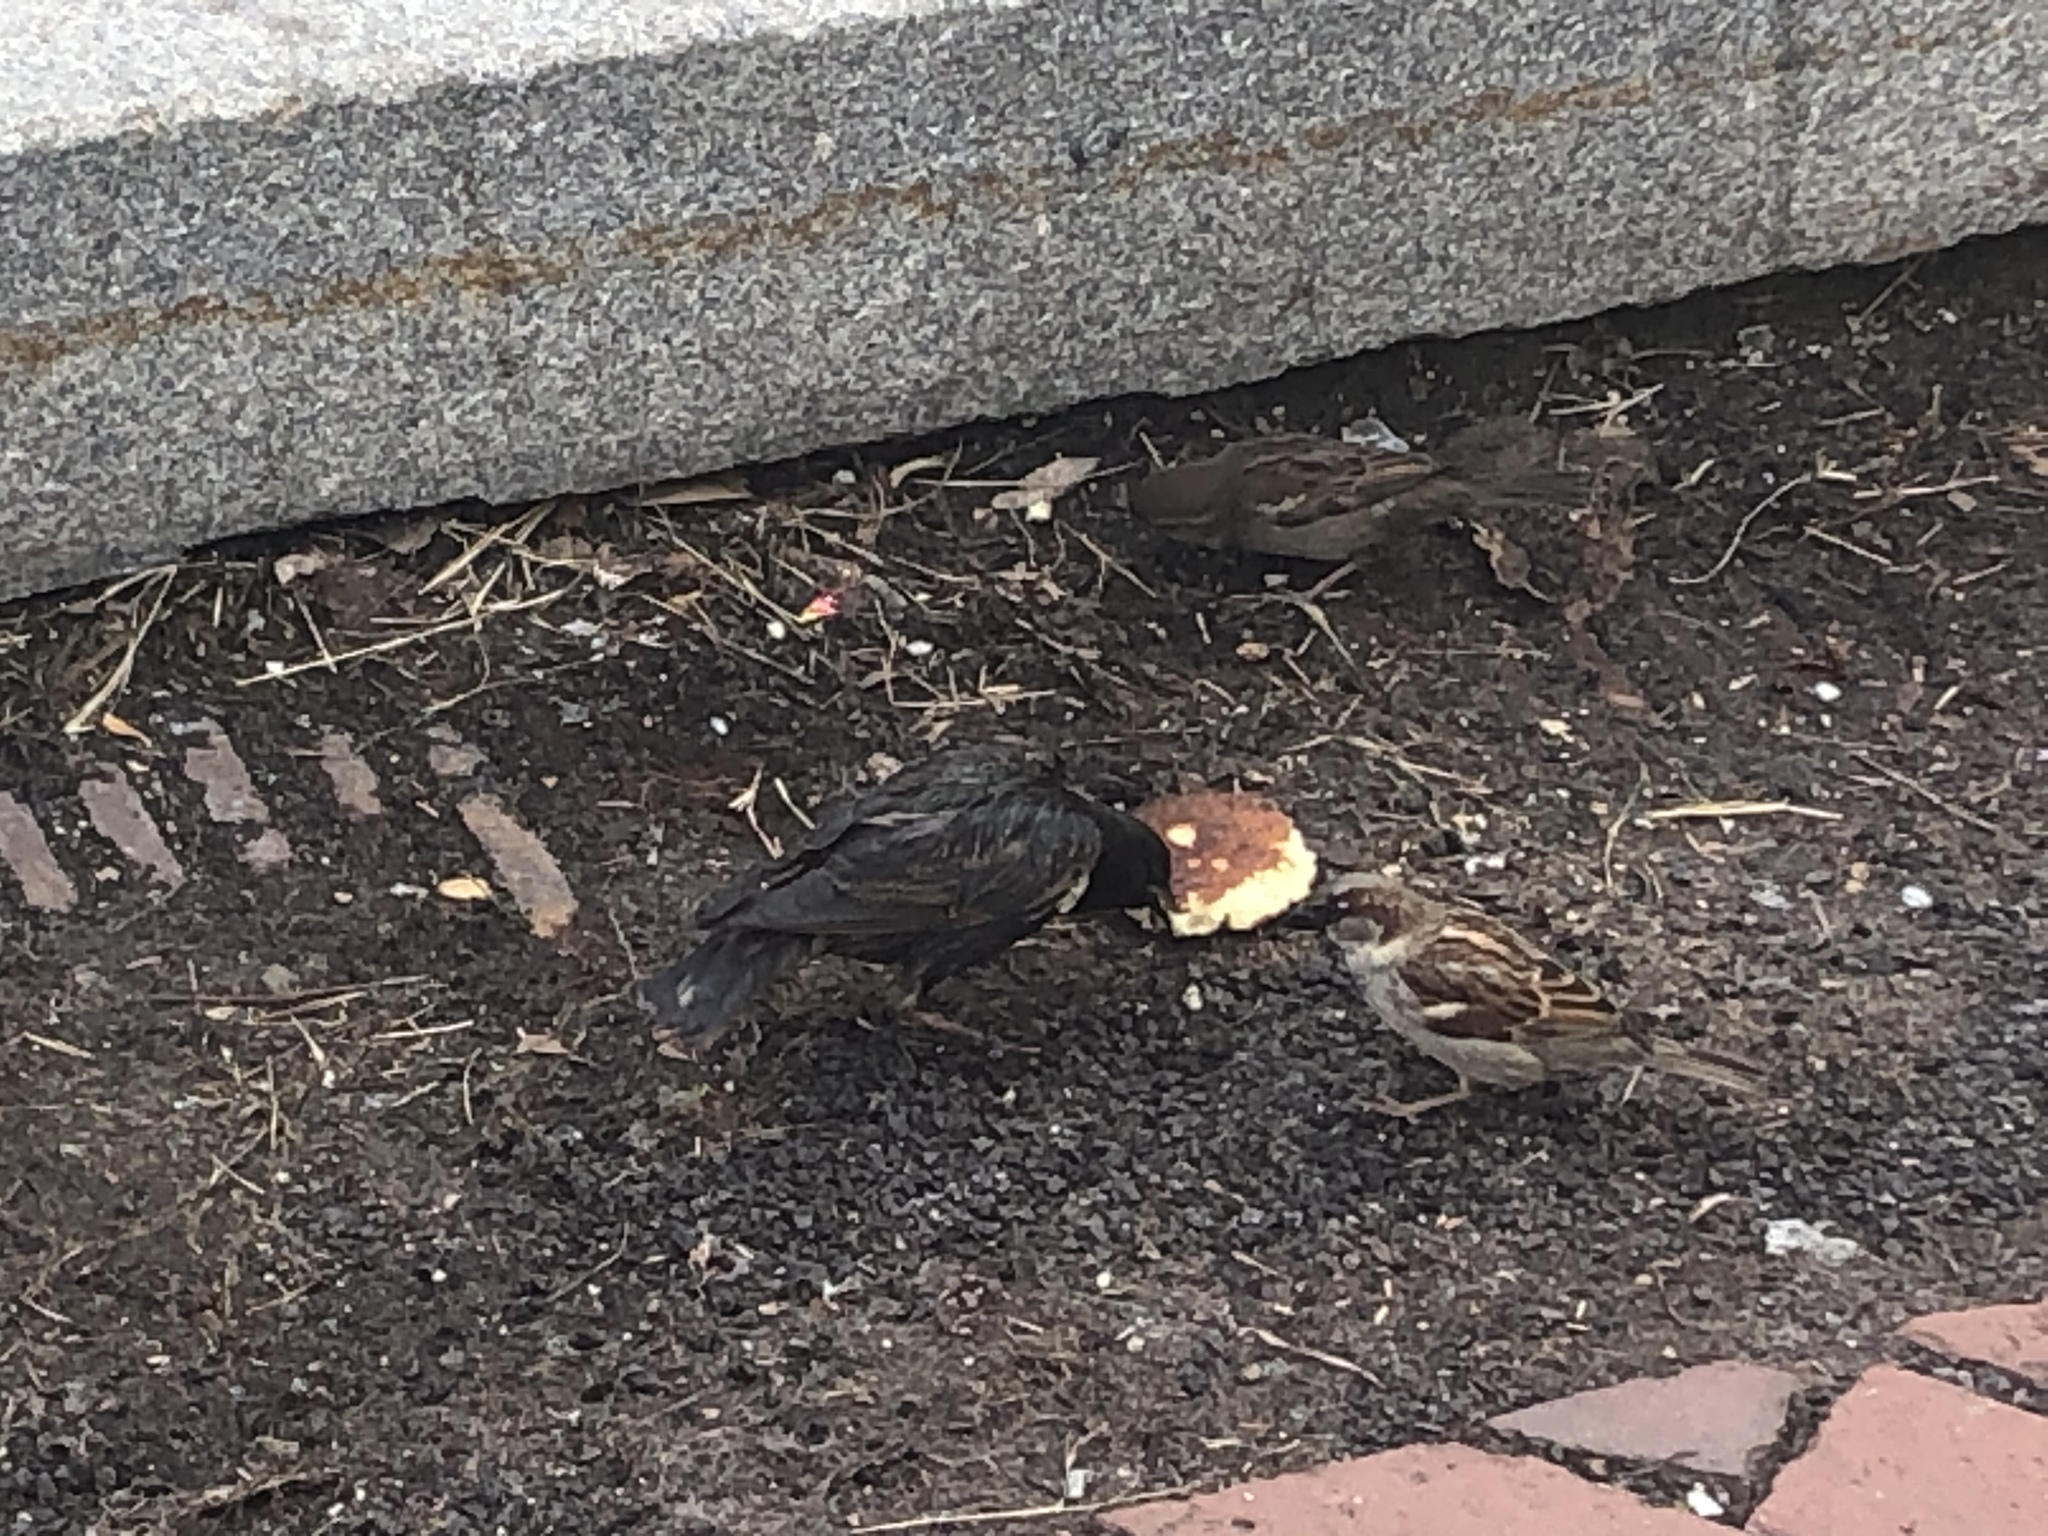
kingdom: Animalia
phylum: Chordata
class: Aves
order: Passeriformes
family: Sturnidae
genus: Sturnus
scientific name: Sturnus vulgaris
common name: Common starling
